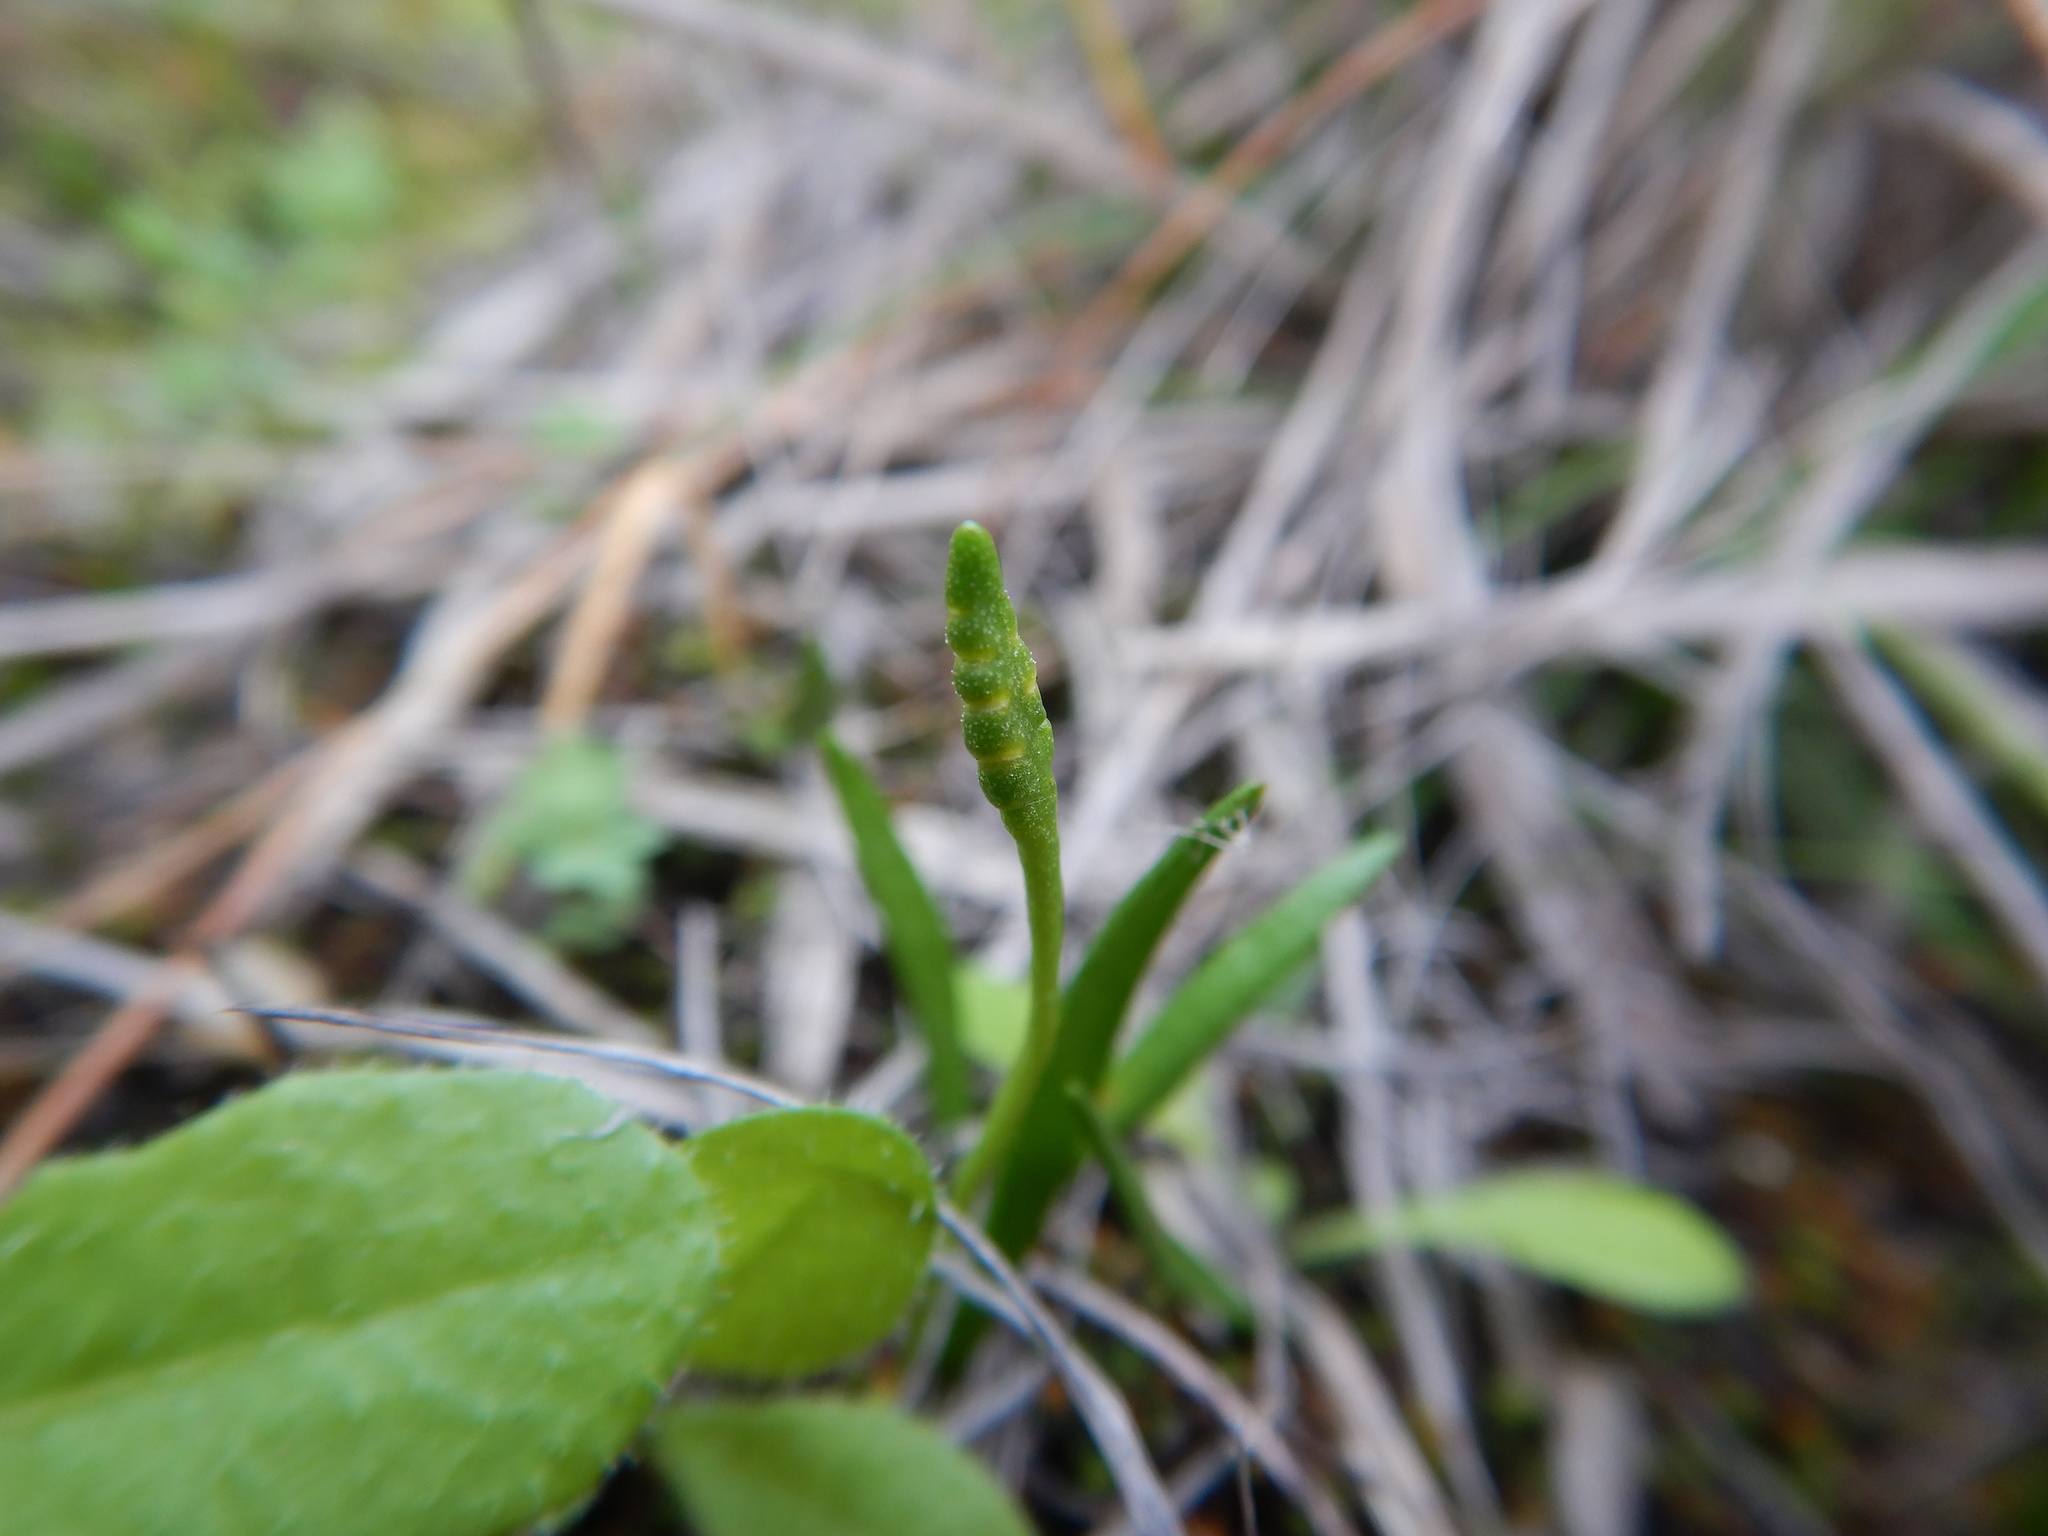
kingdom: Plantae
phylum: Tracheophyta
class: Polypodiopsida
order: Ophioglossales
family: Ophioglossaceae
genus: Ophioglossum
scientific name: Ophioglossum lusitanicum
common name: Least adder's-tongue
